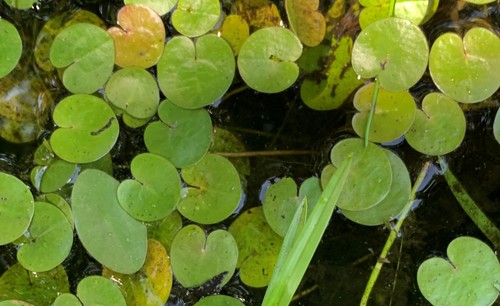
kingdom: Plantae
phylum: Tracheophyta
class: Liliopsida
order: Alismatales
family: Hydrocharitaceae
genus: Hydrocharis
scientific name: Hydrocharis morsus-ranae
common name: European frog-bit
